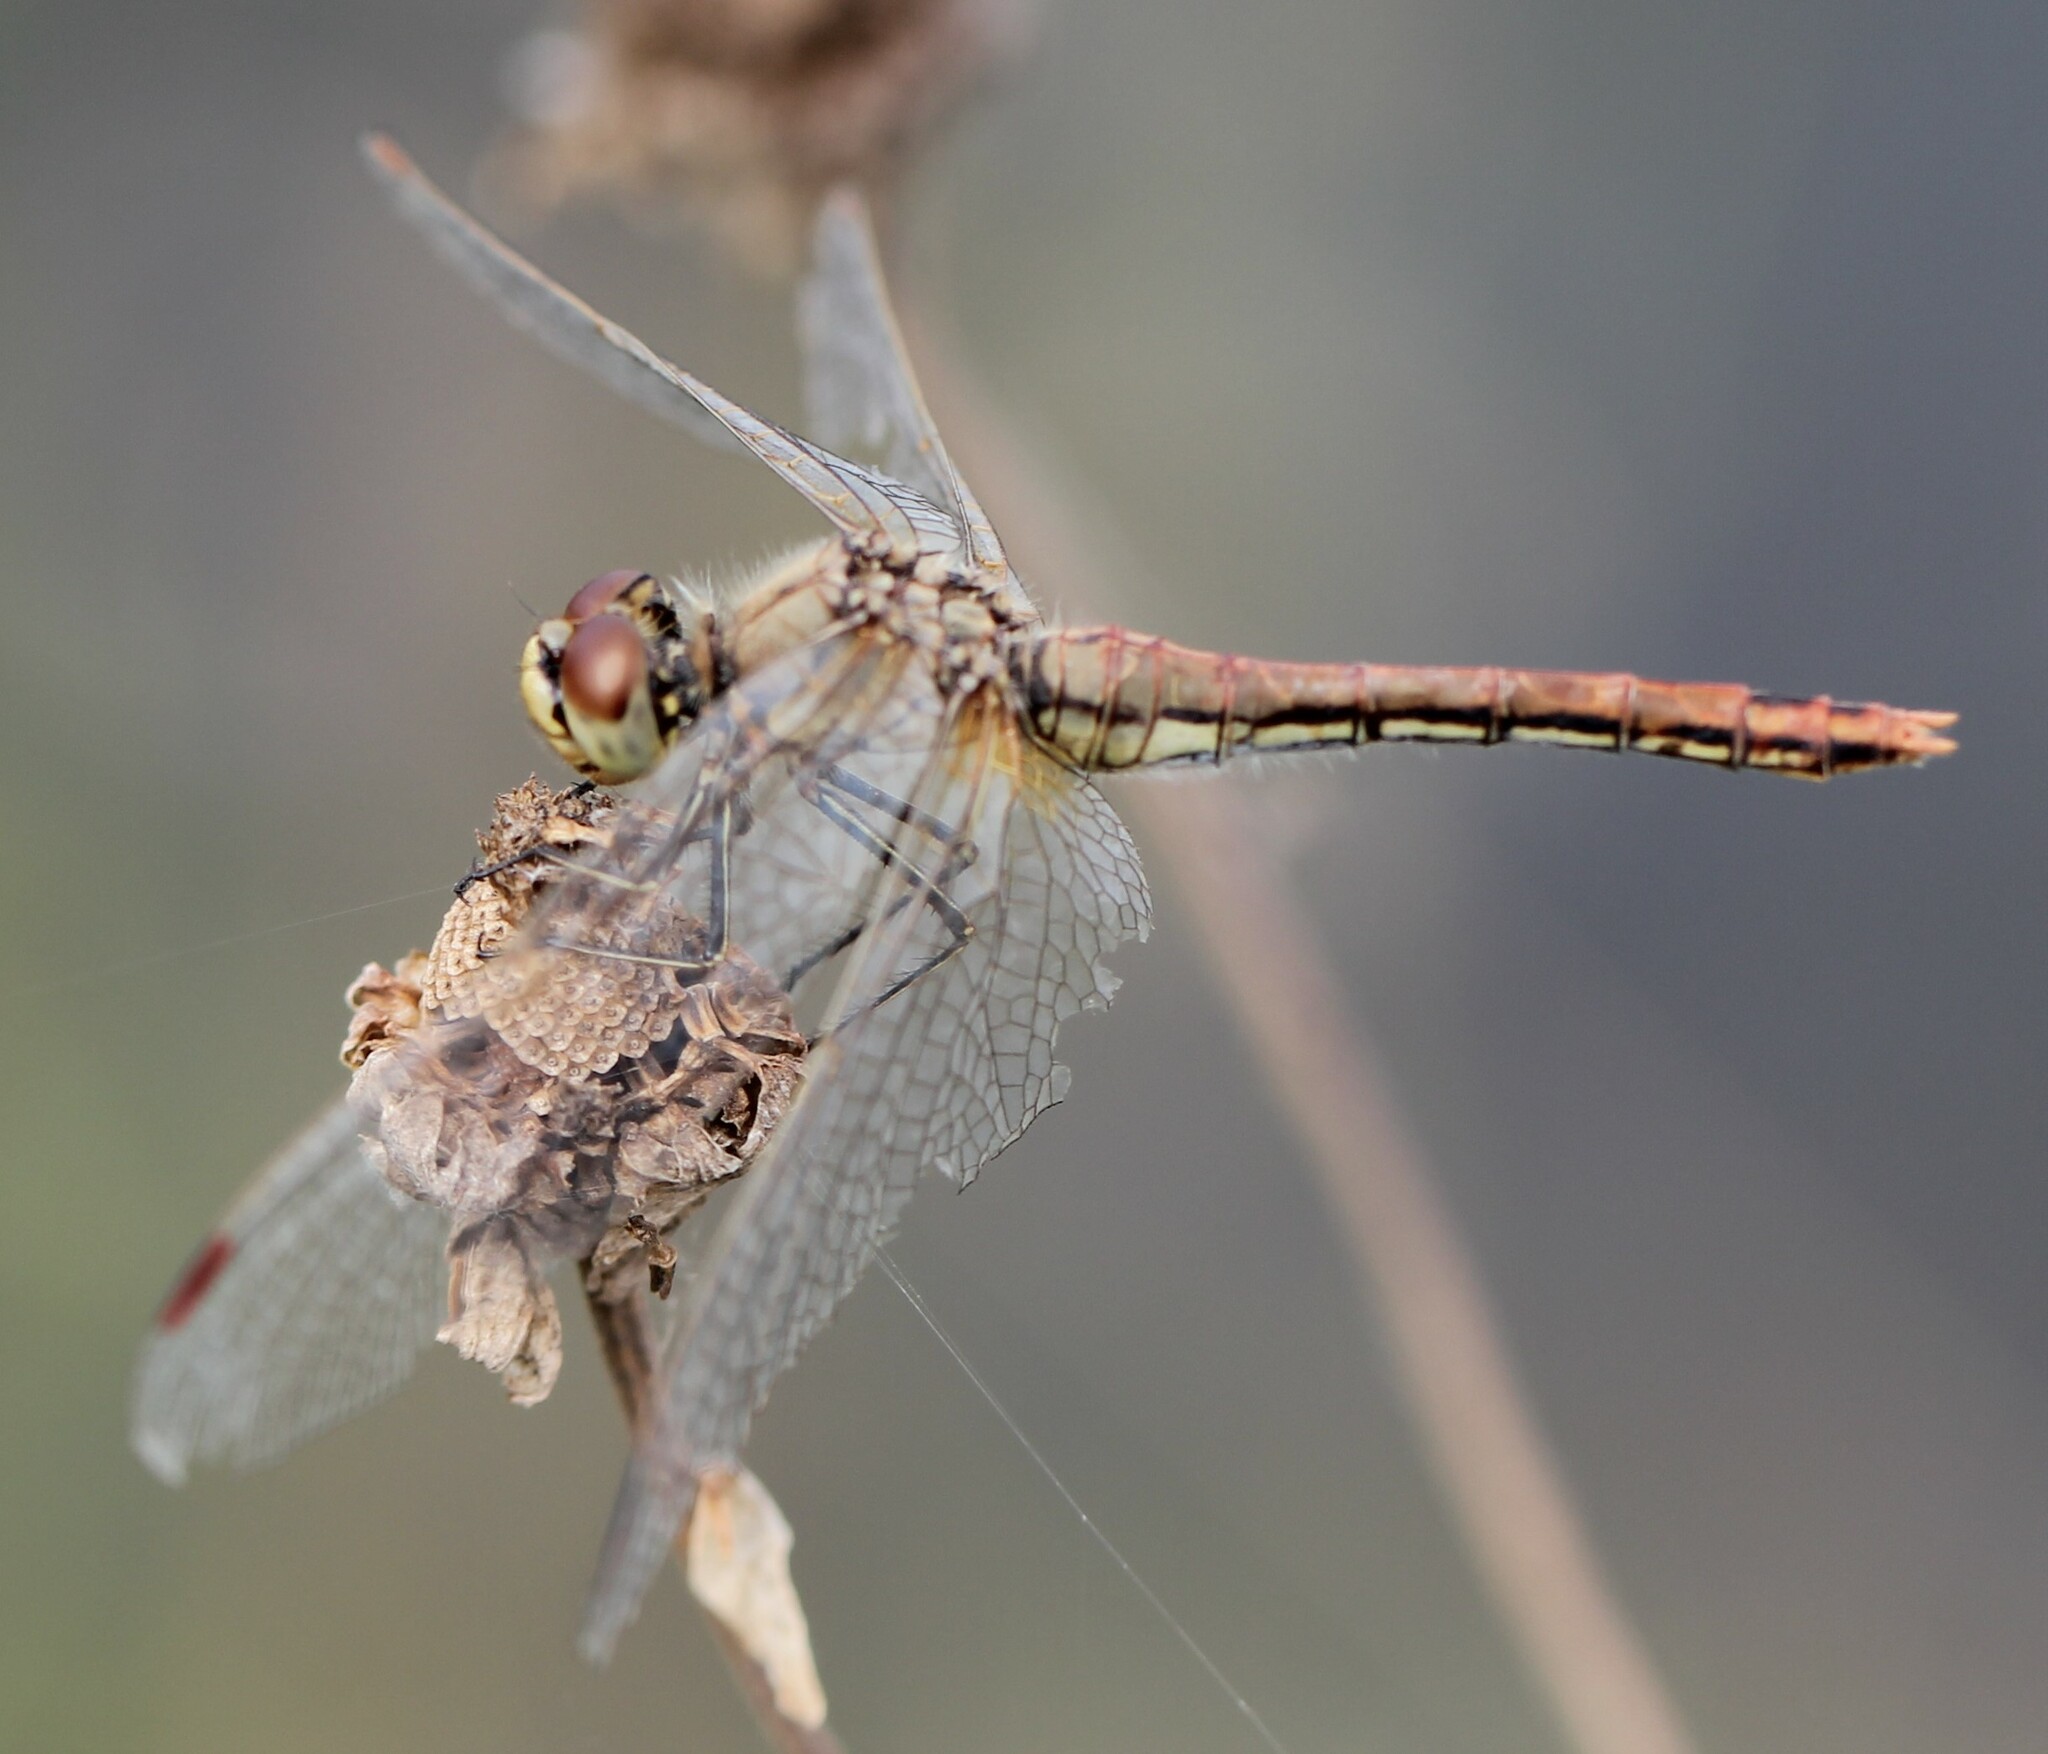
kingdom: Animalia
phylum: Arthropoda
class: Insecta
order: Odonata
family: Libellulidae
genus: Sympetrum
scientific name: Sympetrum flaveolum
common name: Yellow-winged darter
